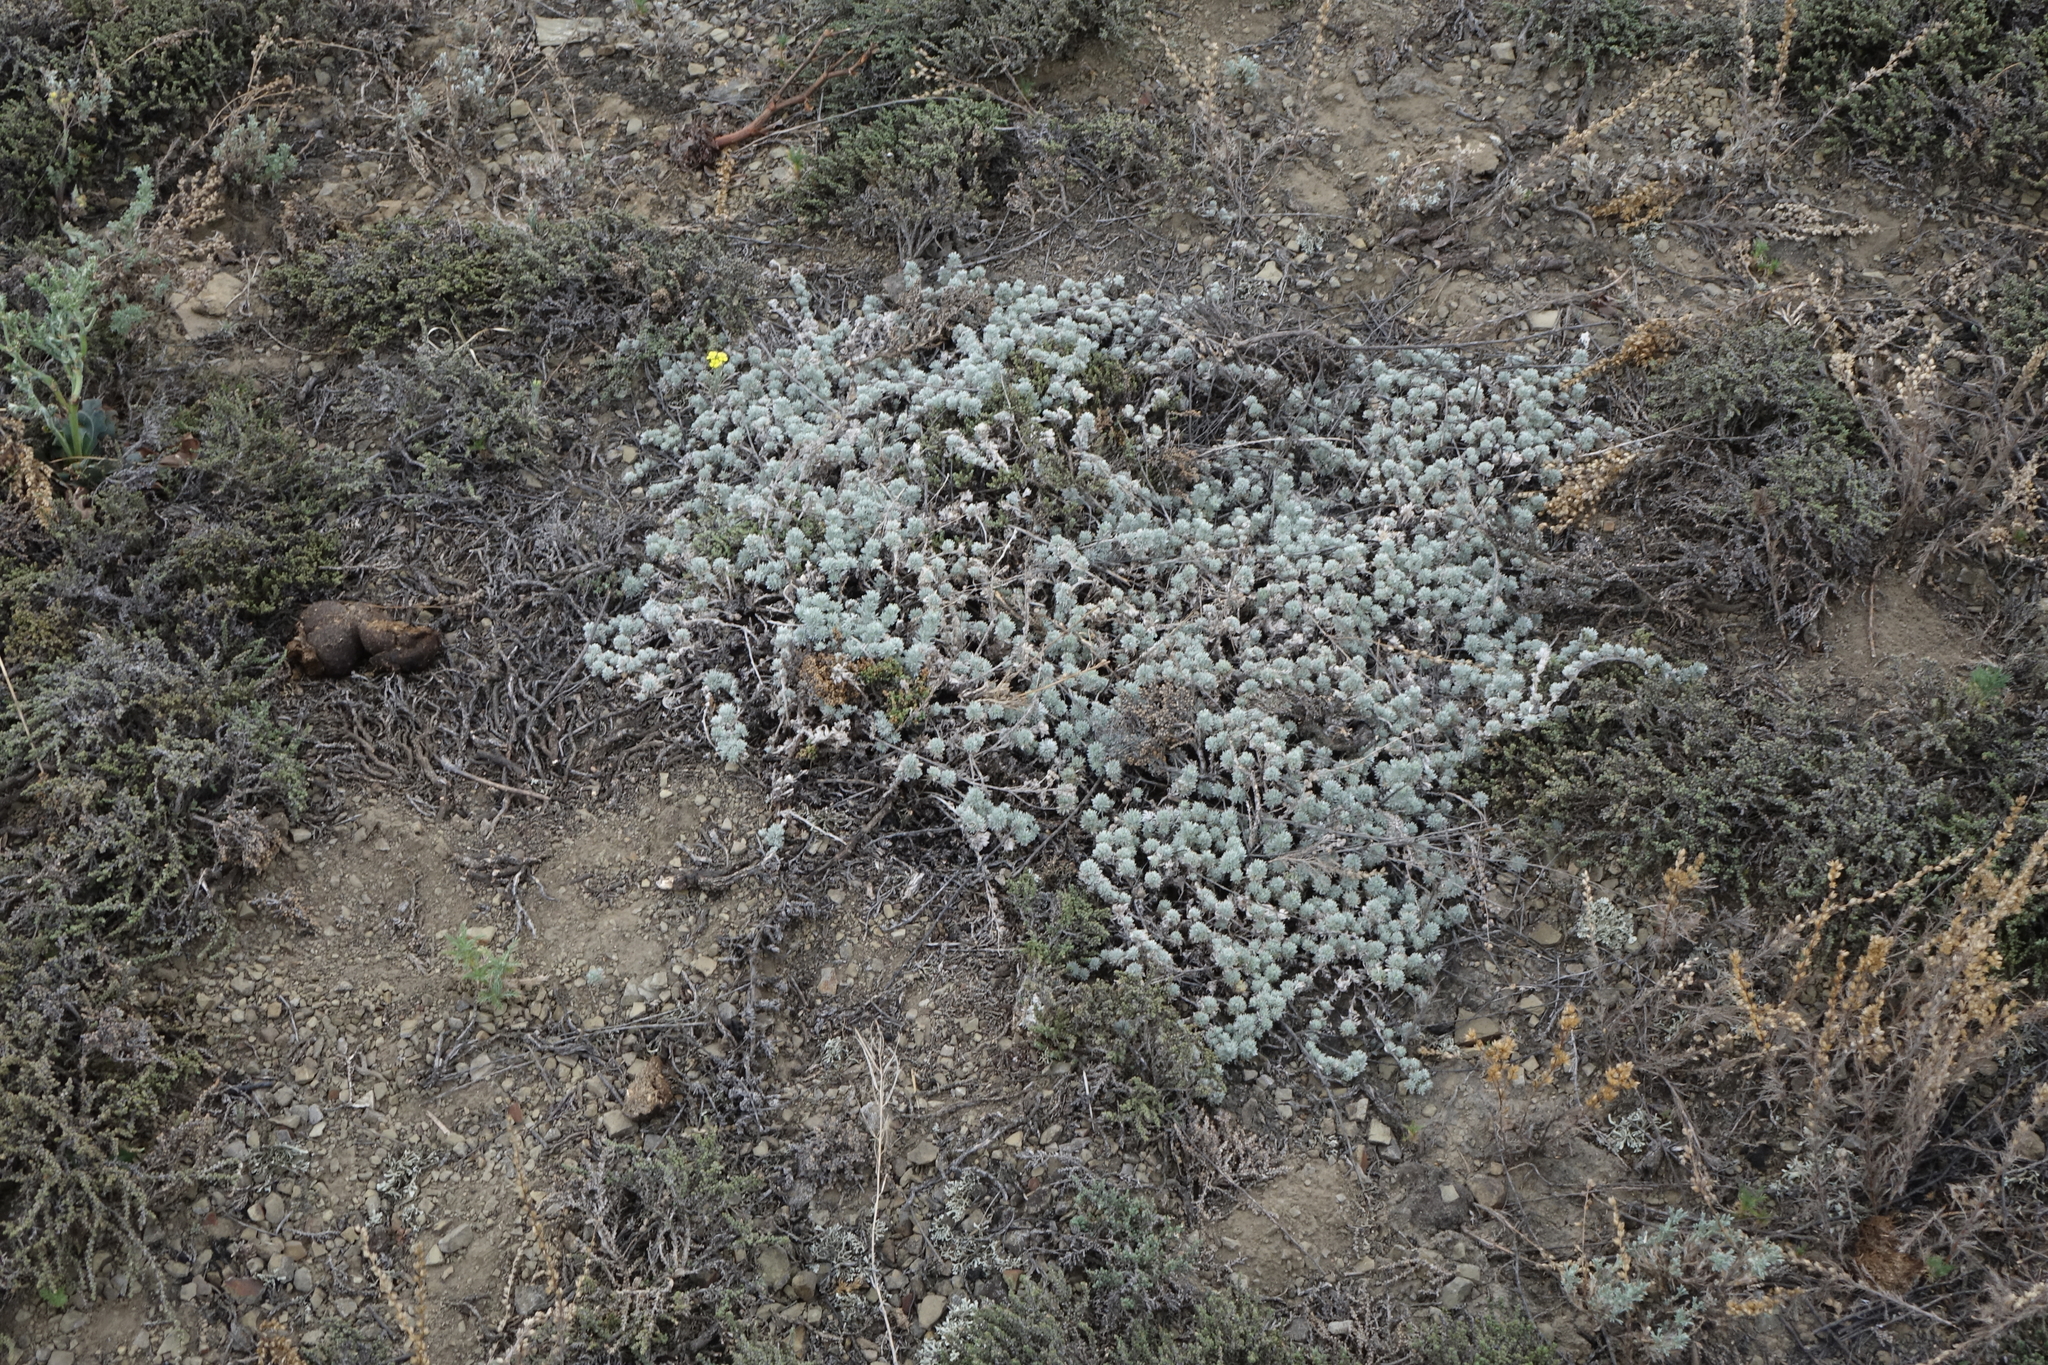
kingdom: Plantae
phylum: Tracheophyta
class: Magnoliopsida
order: Asterales
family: Asteraceae
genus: Artemisia
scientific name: Artemisia frigida
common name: Prairie sagewort
